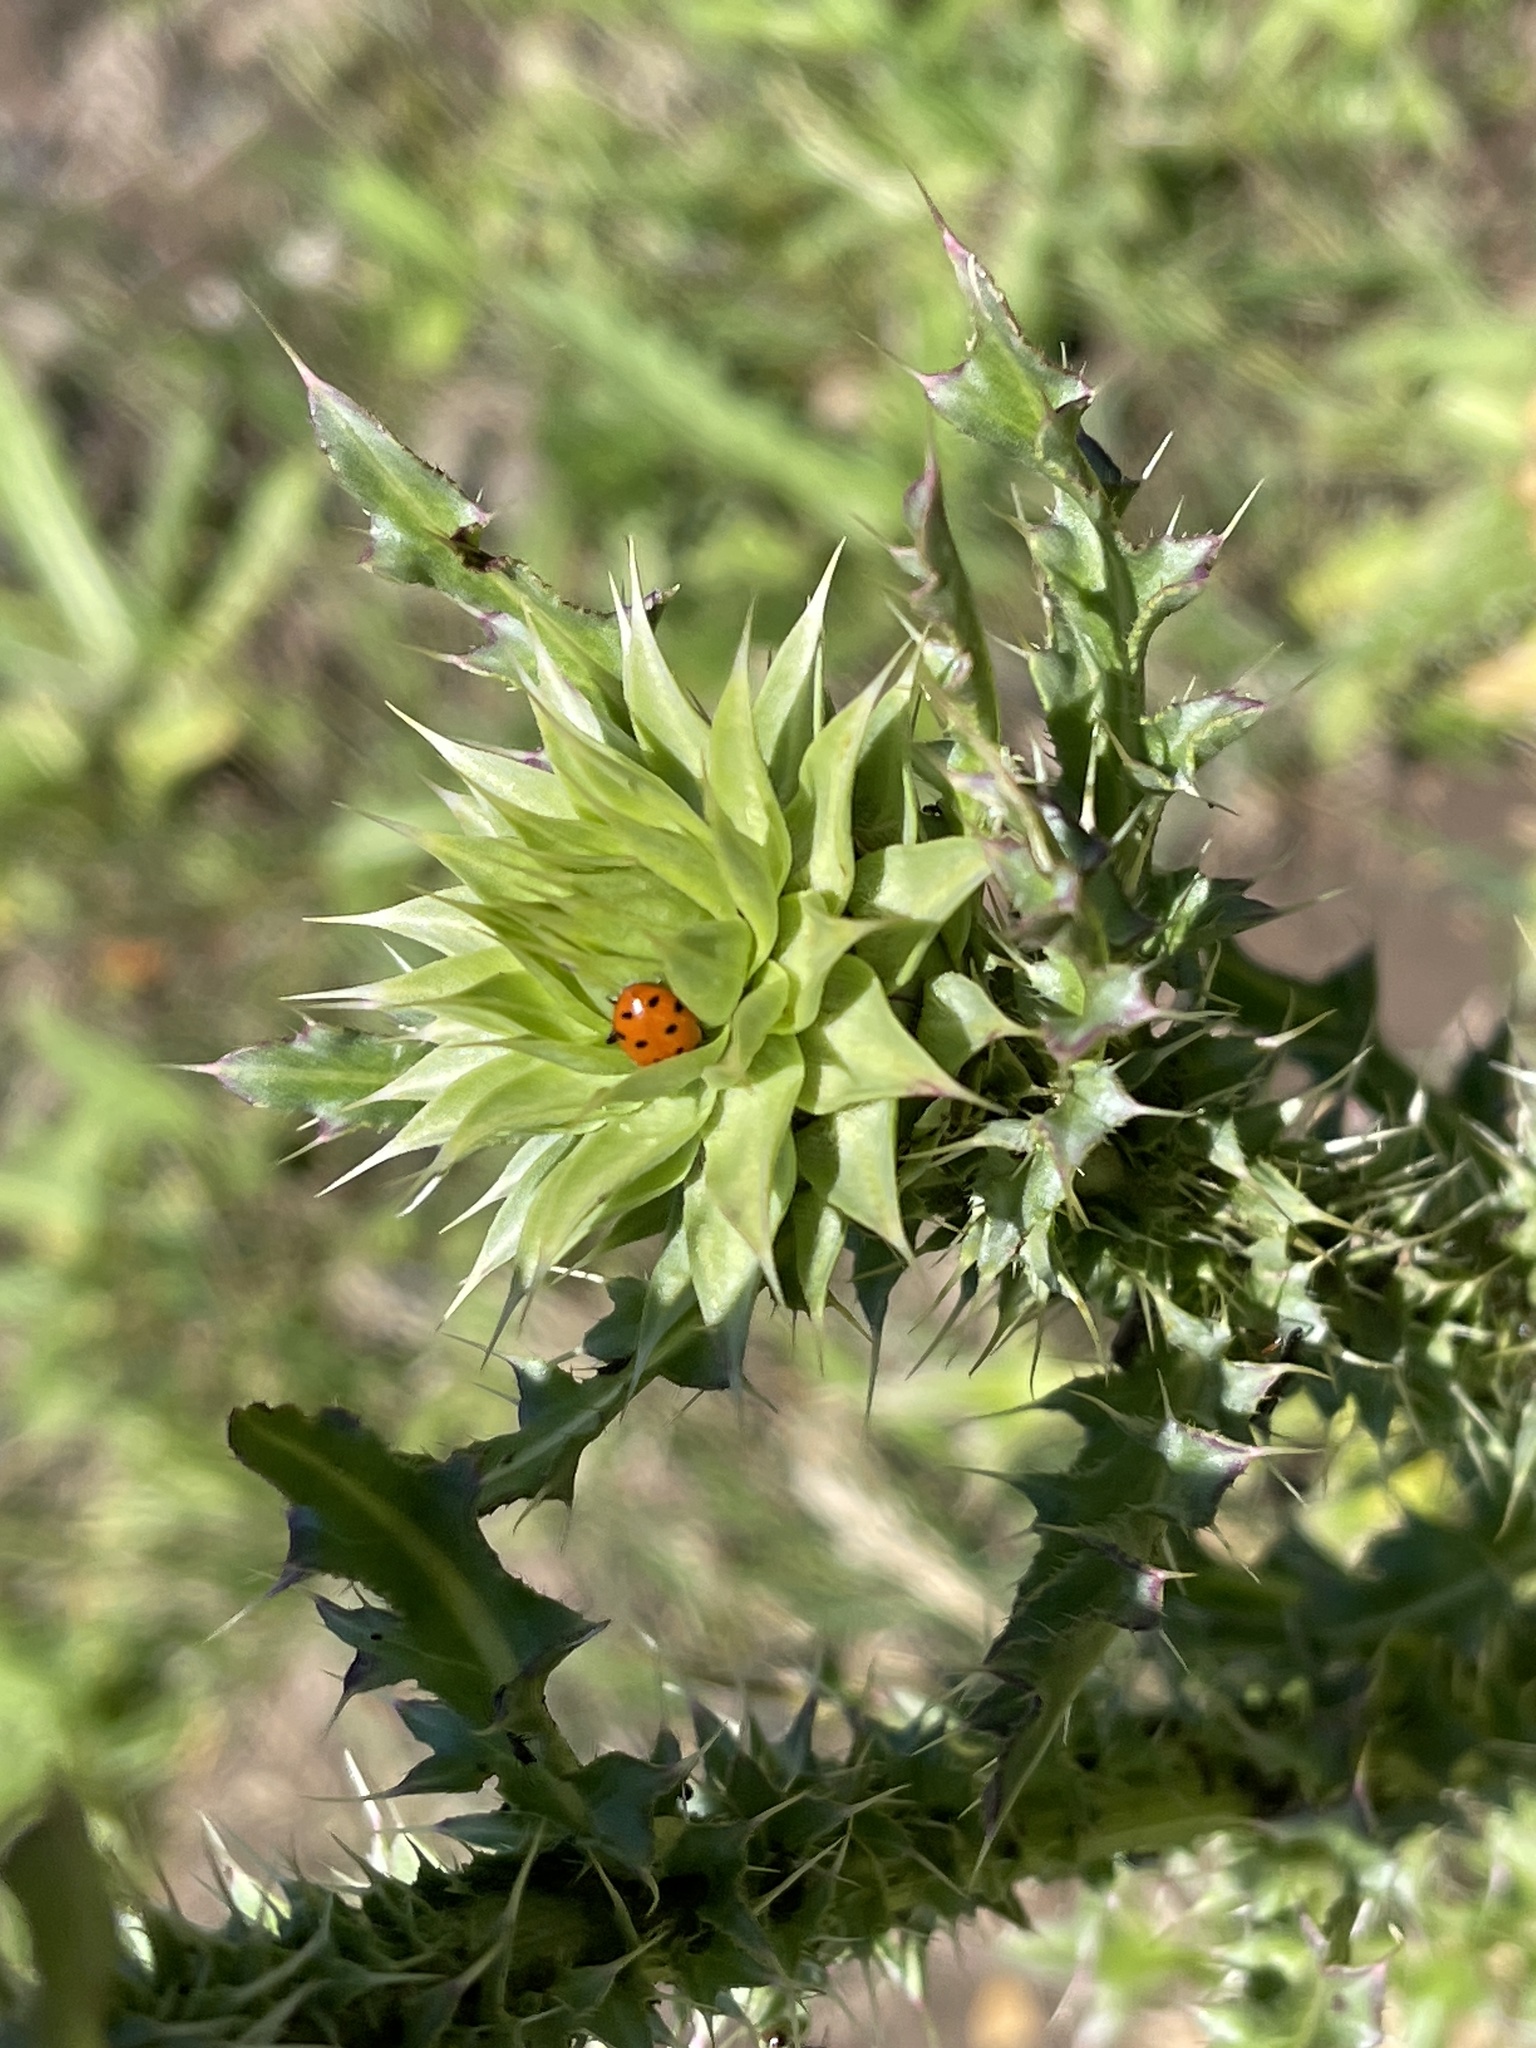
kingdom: Animalia
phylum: Arthropoda
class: Insecta
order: Coleoptera
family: Coccinellidae
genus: Hippodamia
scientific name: Hippodamia convergens
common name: Convergent lady beetle
